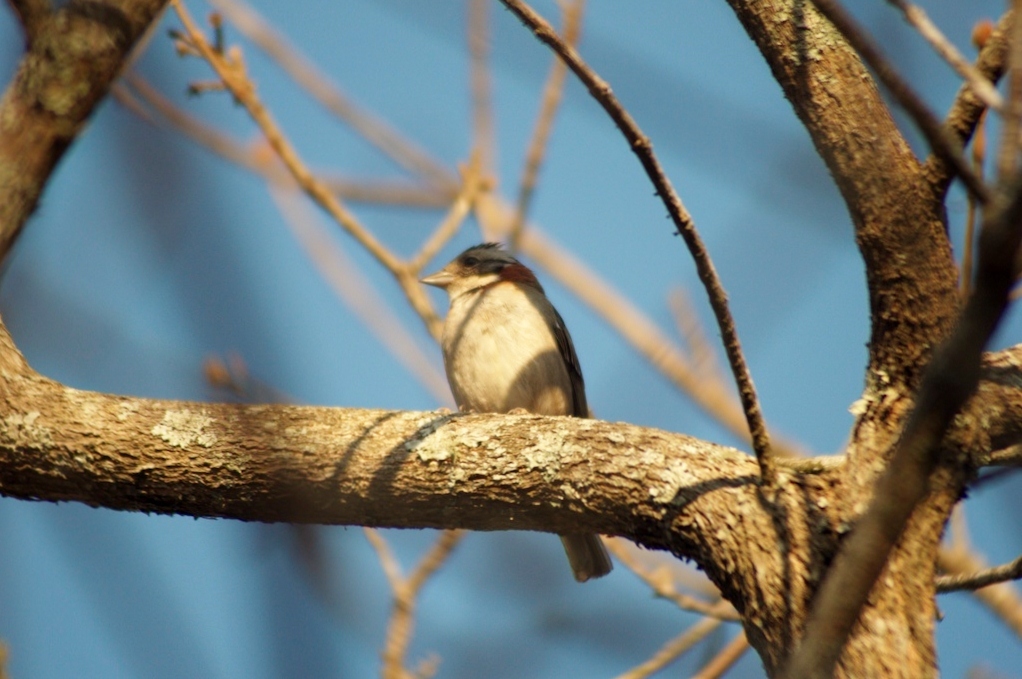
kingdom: Animalia
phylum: Chordata
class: Aves
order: Passeriformes
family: Passerellidae
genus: Zonotrichia
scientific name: Zonotrichia capensis
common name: Rufous-collared sparrow
